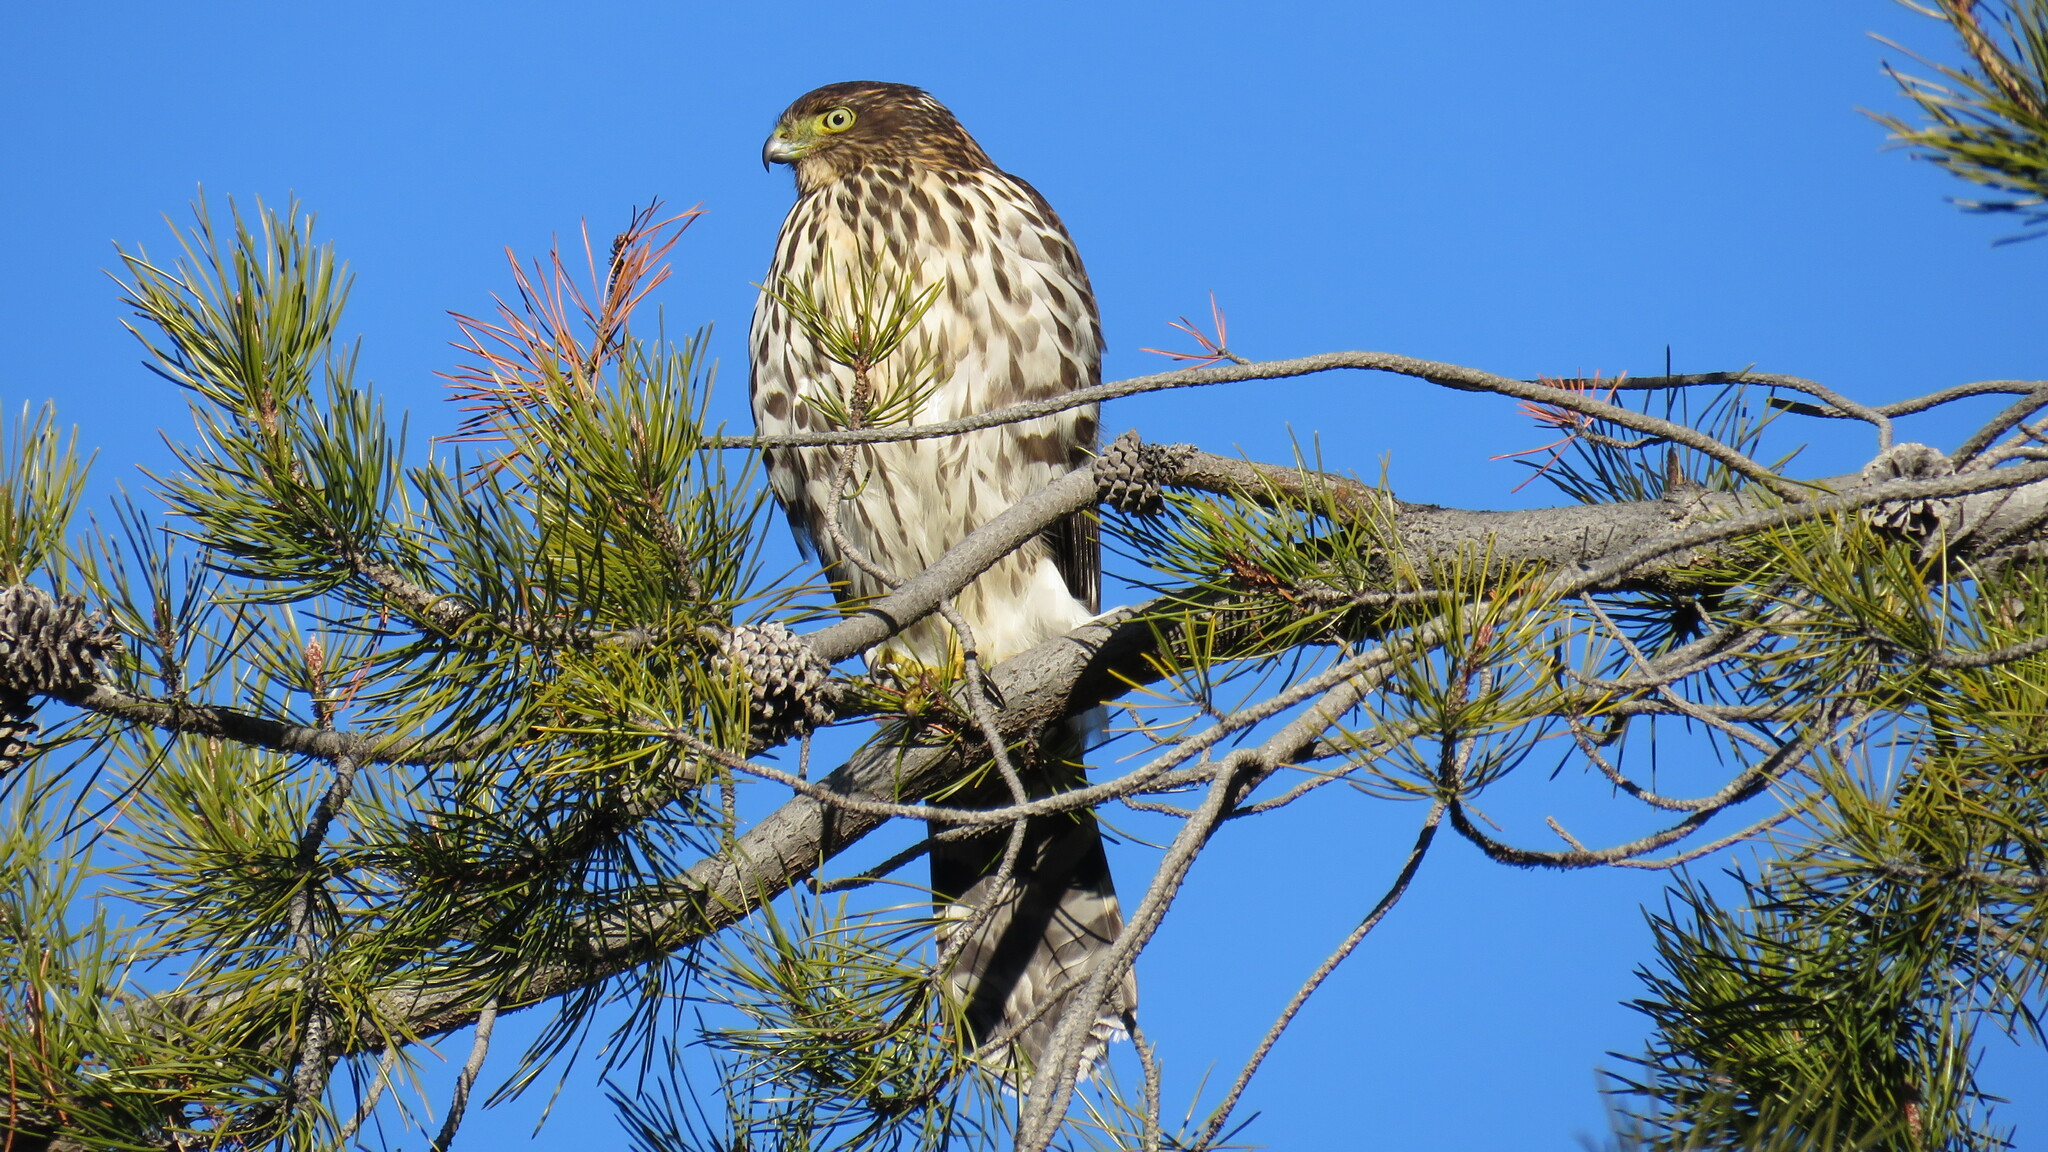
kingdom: Animalia
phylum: Chordata
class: Aves
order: Accipitriformes
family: Accipitridae
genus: Accipiter
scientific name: Accipiter chilensis
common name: Chilean hawk
